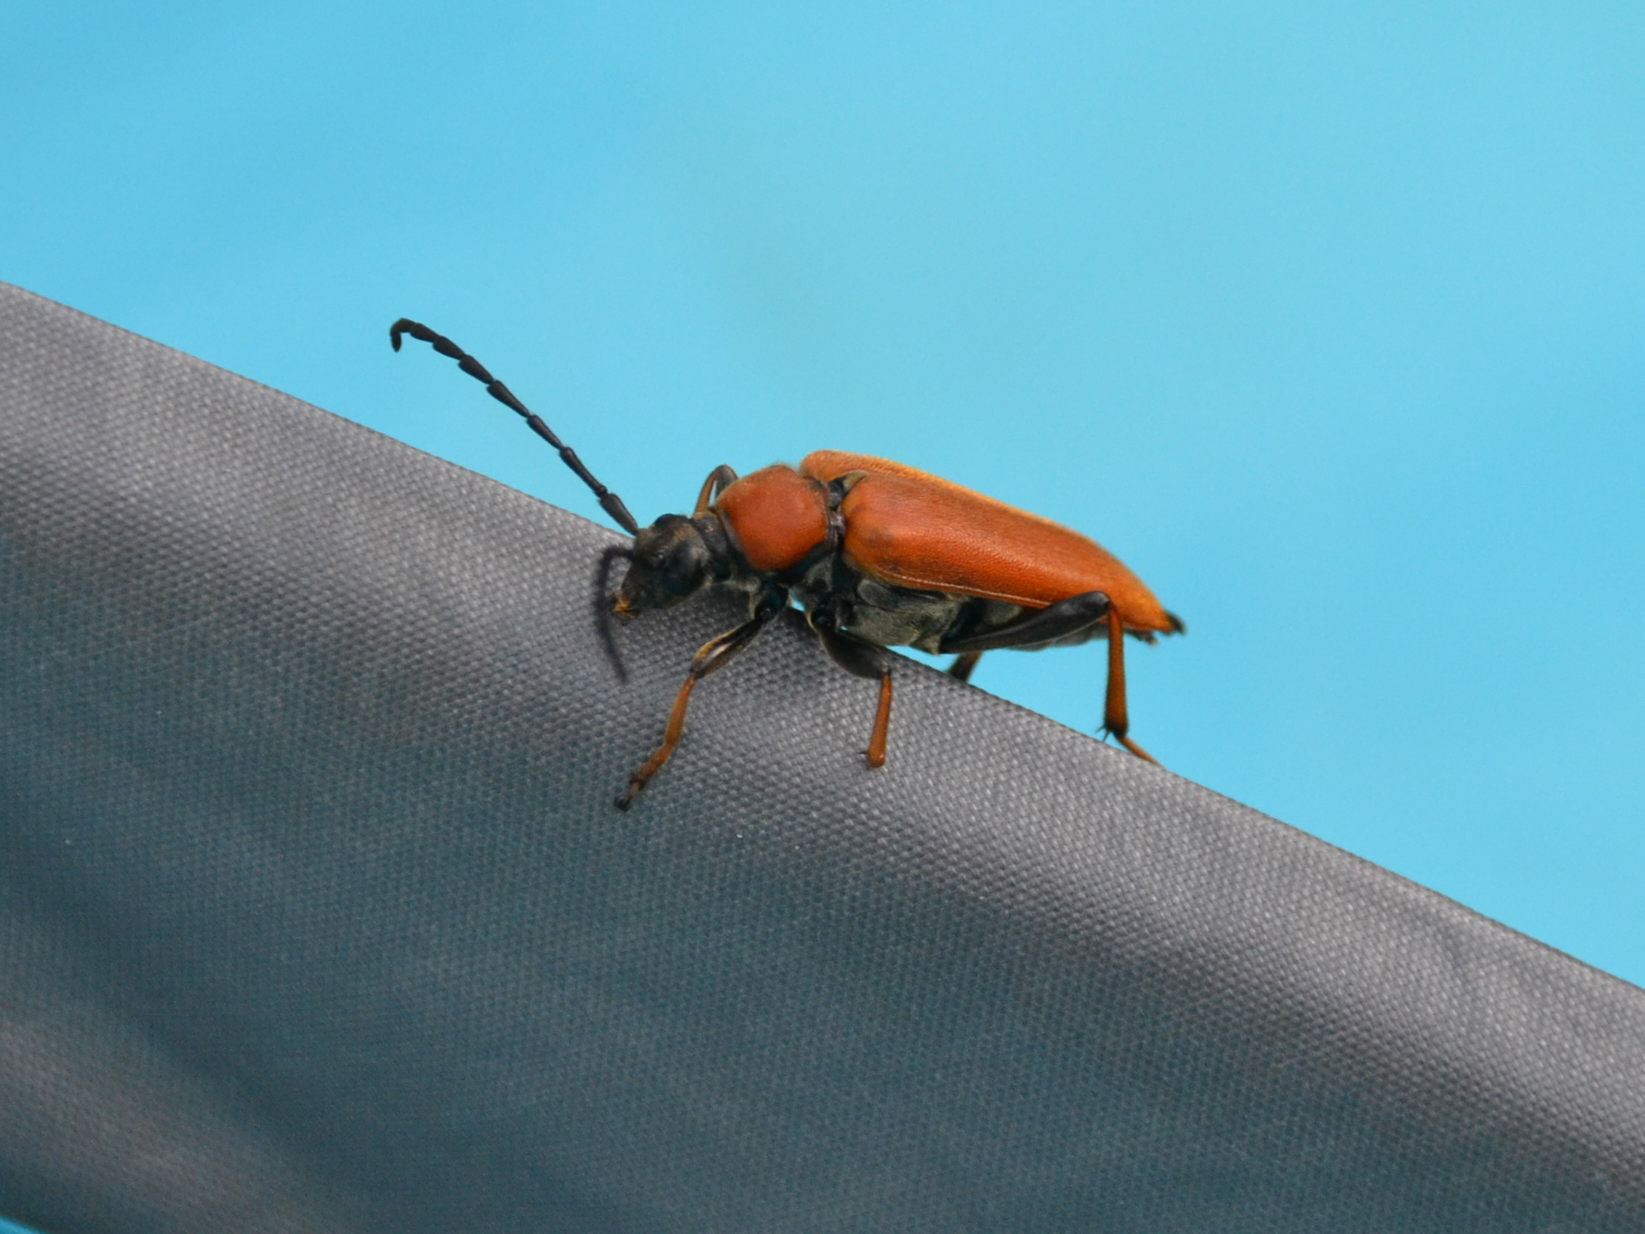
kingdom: Animalia
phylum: Arthropoda
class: Insecta
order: Coleoptera
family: Cerambycidae
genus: Stictoleptura
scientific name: Stictoleptura rubra
